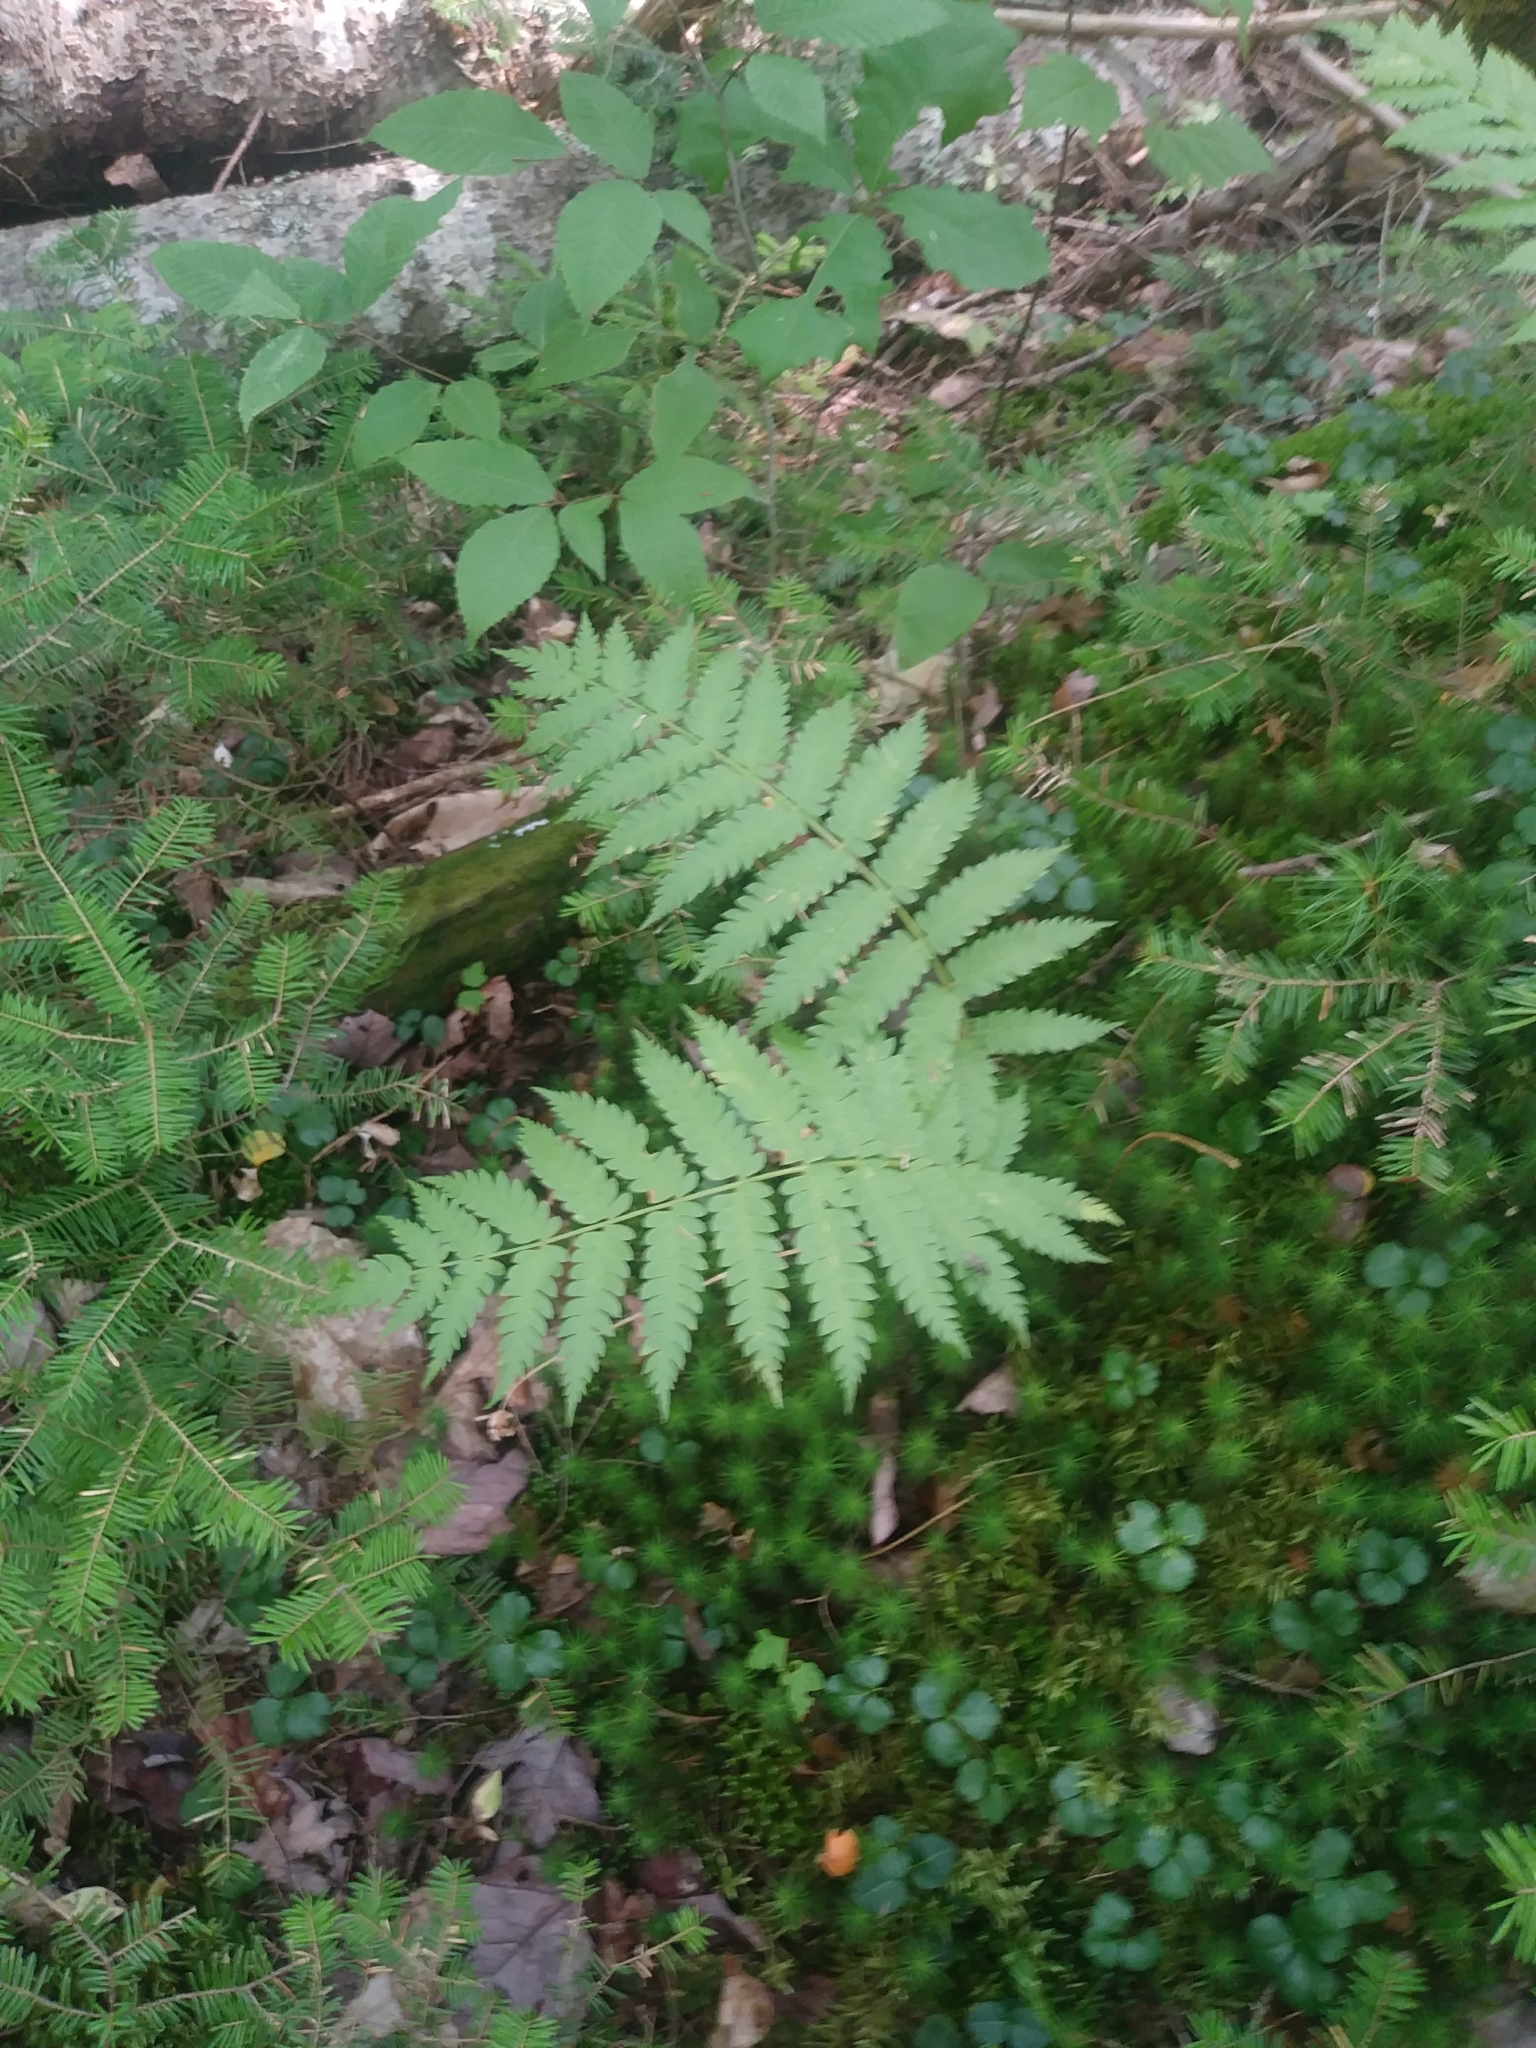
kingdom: Plantae
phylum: Tracheophyta
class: Polypodiopsida
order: Osmundales
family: Osmundaceae
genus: Osmundastrum
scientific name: Osmundastrum cinnamomeum
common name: Cinnamon fern
